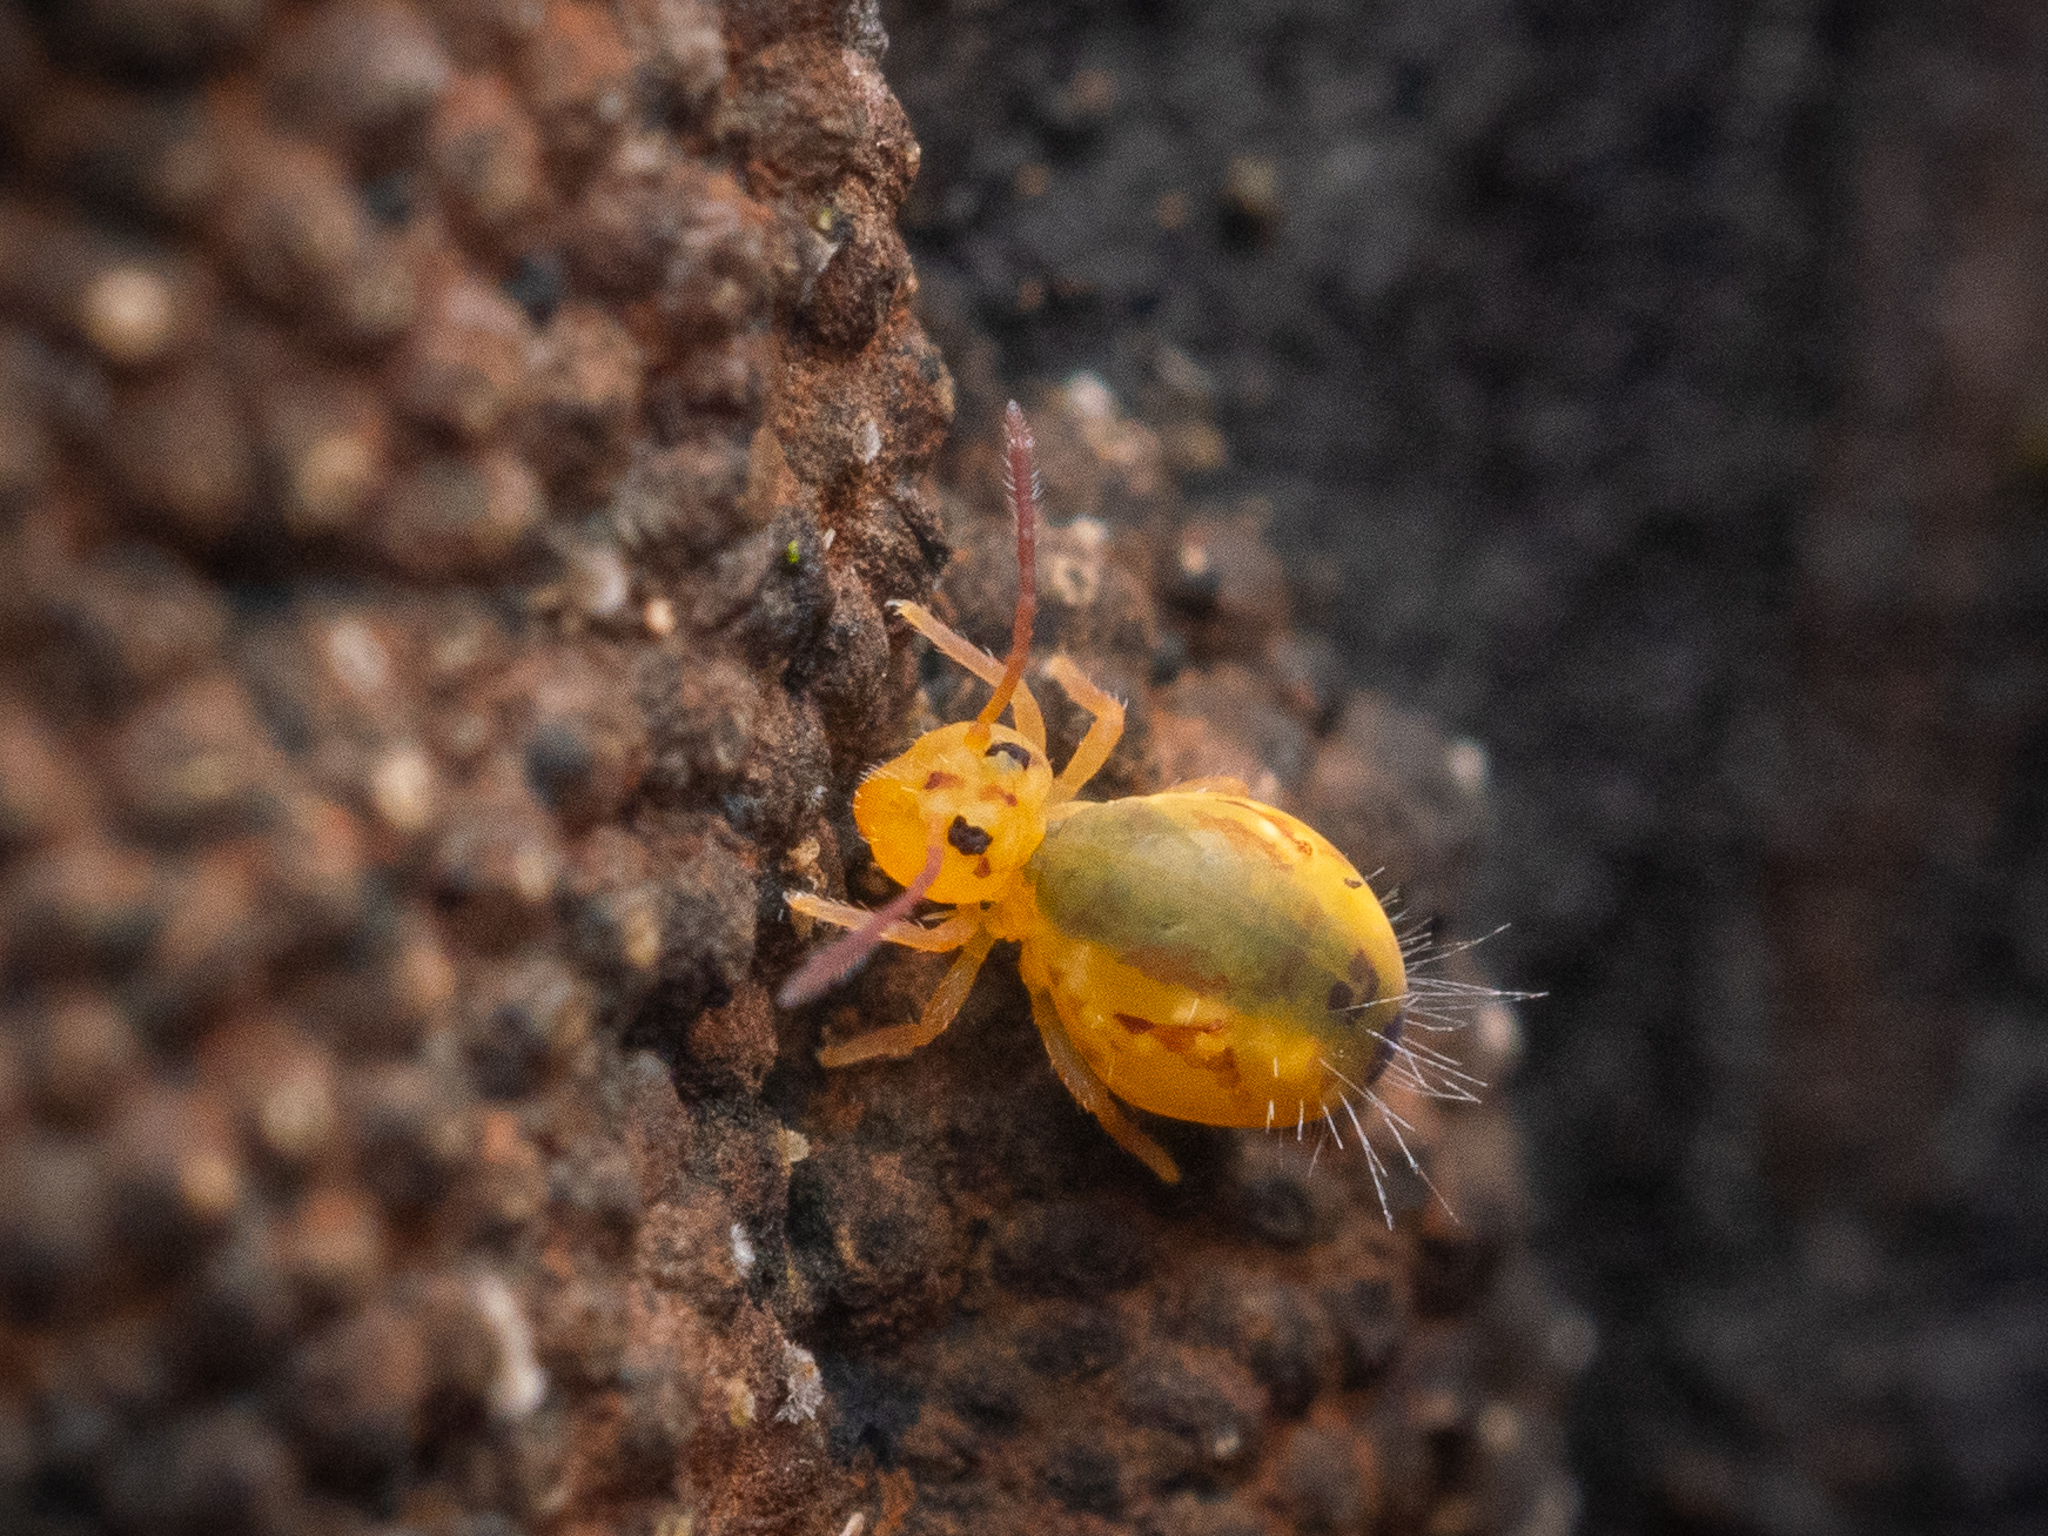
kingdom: Animalia
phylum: Arthropoda
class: Collembola
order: Symphypleona
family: Dicyrtomidae
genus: Dicyrtomina
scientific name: Dicyrtomina ornata
